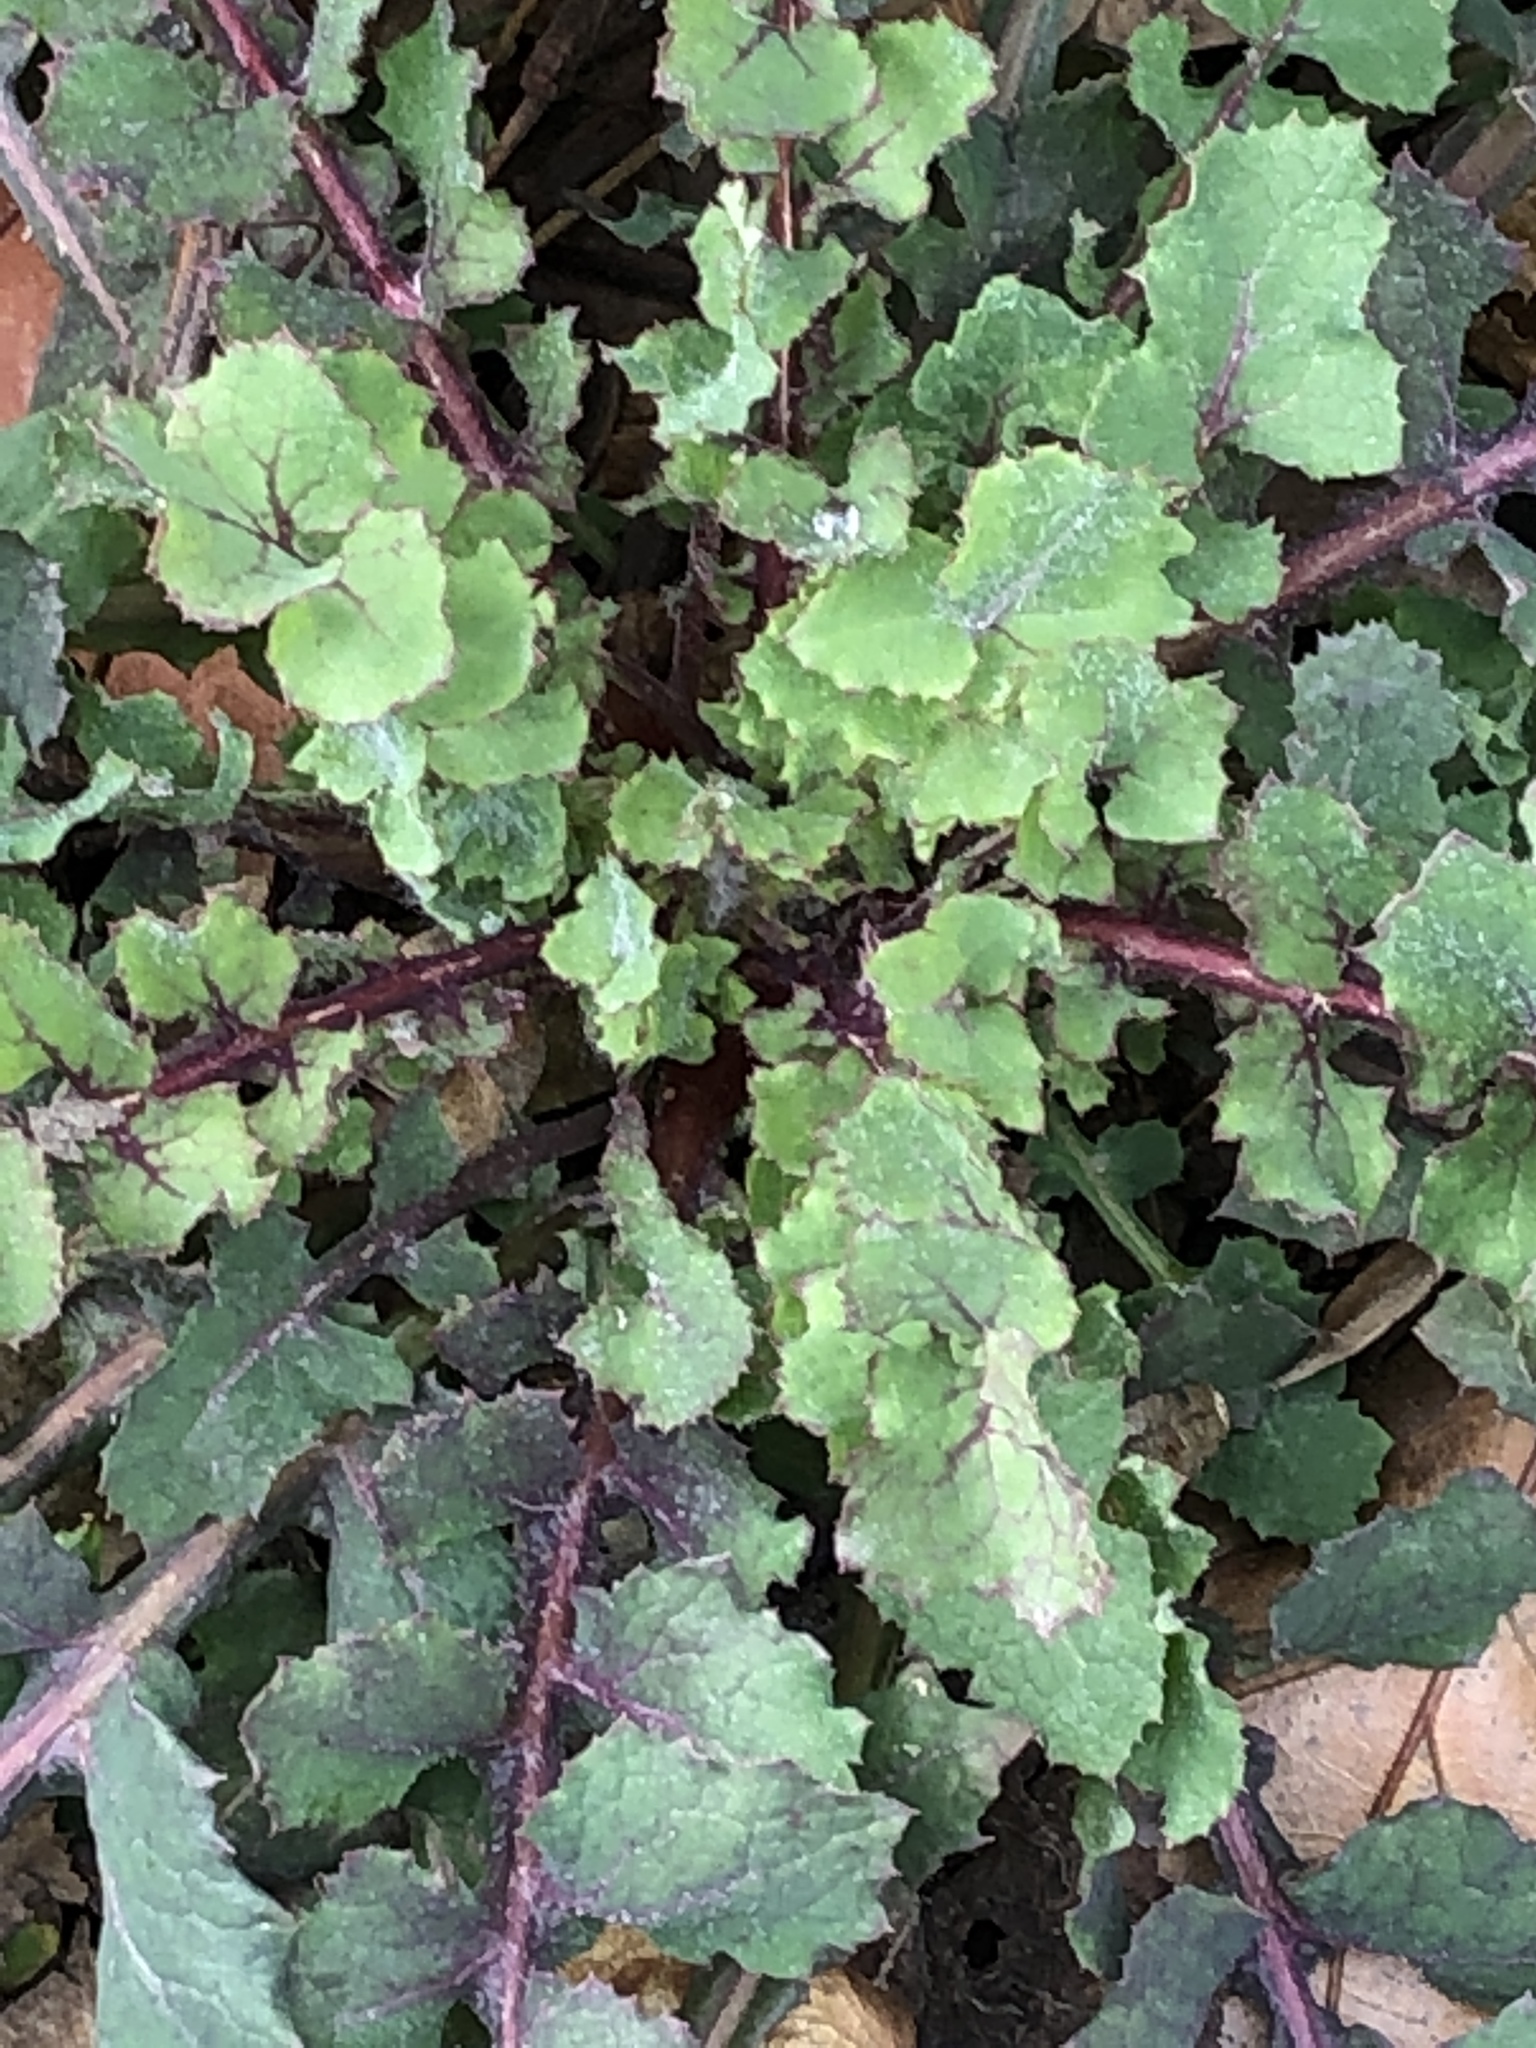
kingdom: Plantae
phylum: Tracheophyta
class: Magnoliopsida
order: Asterales
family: Asteraceae
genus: Sonchus
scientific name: Sonchus oleraceus
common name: Common sowthistle
